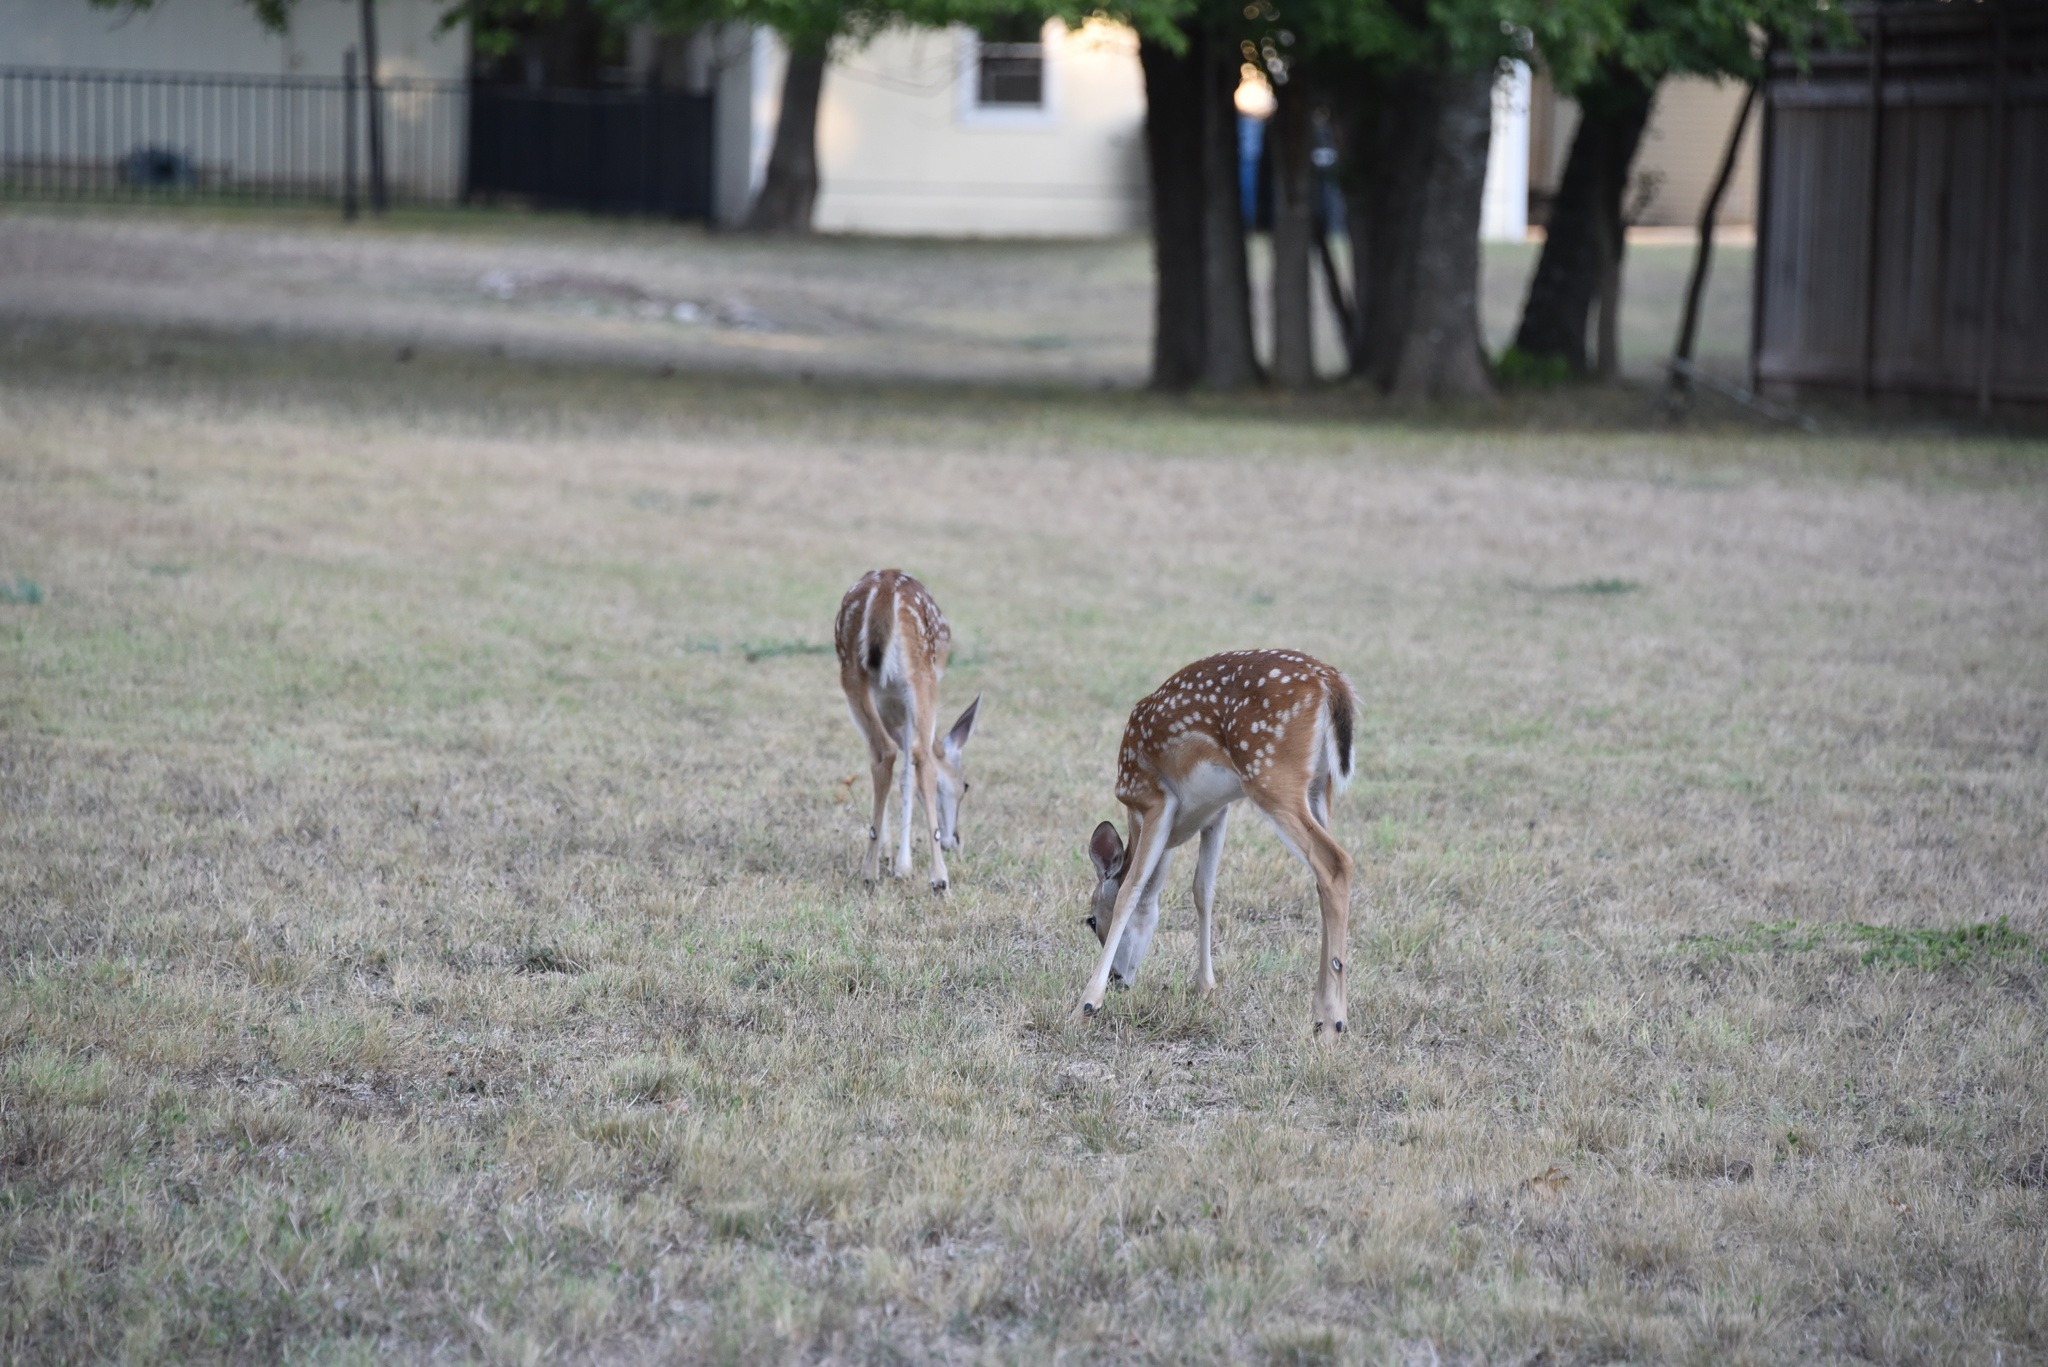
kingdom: Animalia
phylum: Chordata
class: Mammalia
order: Artiodactyla
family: Cervidae
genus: Odocoileus
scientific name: Odocoileus virginianus
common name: White-tailed deer
